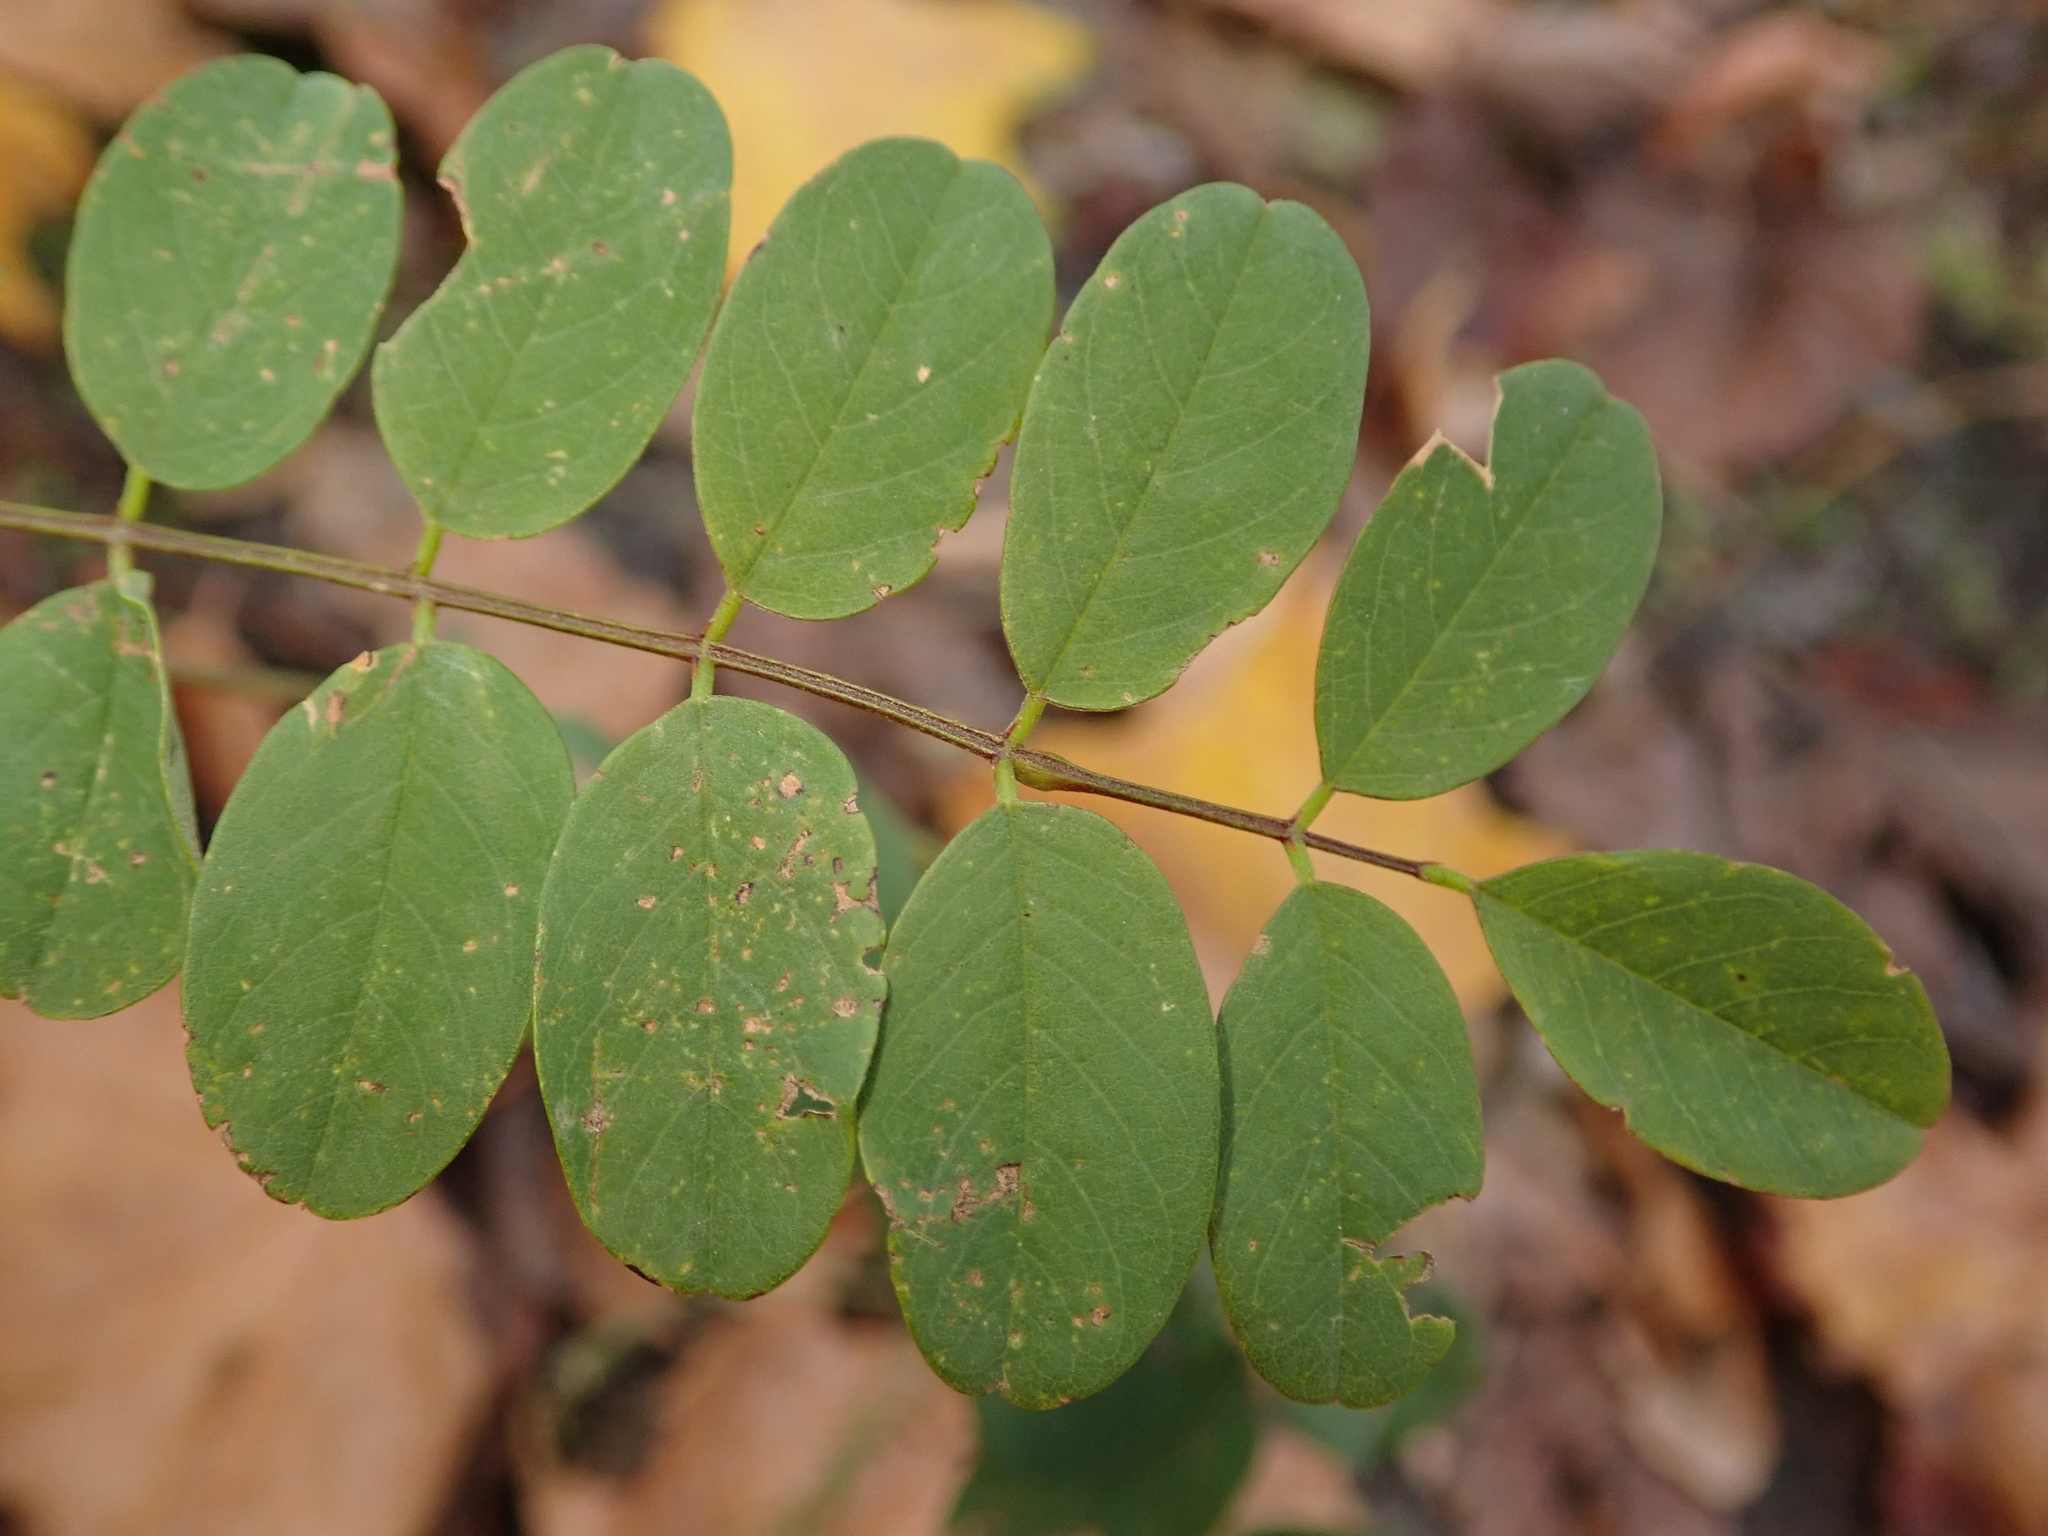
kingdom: Plantae
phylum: Tracheophyta
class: Magnoliopsida
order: Fabales
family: Fabaceae
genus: Robinia
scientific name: Robinia pseudoacacia
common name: Black locust
